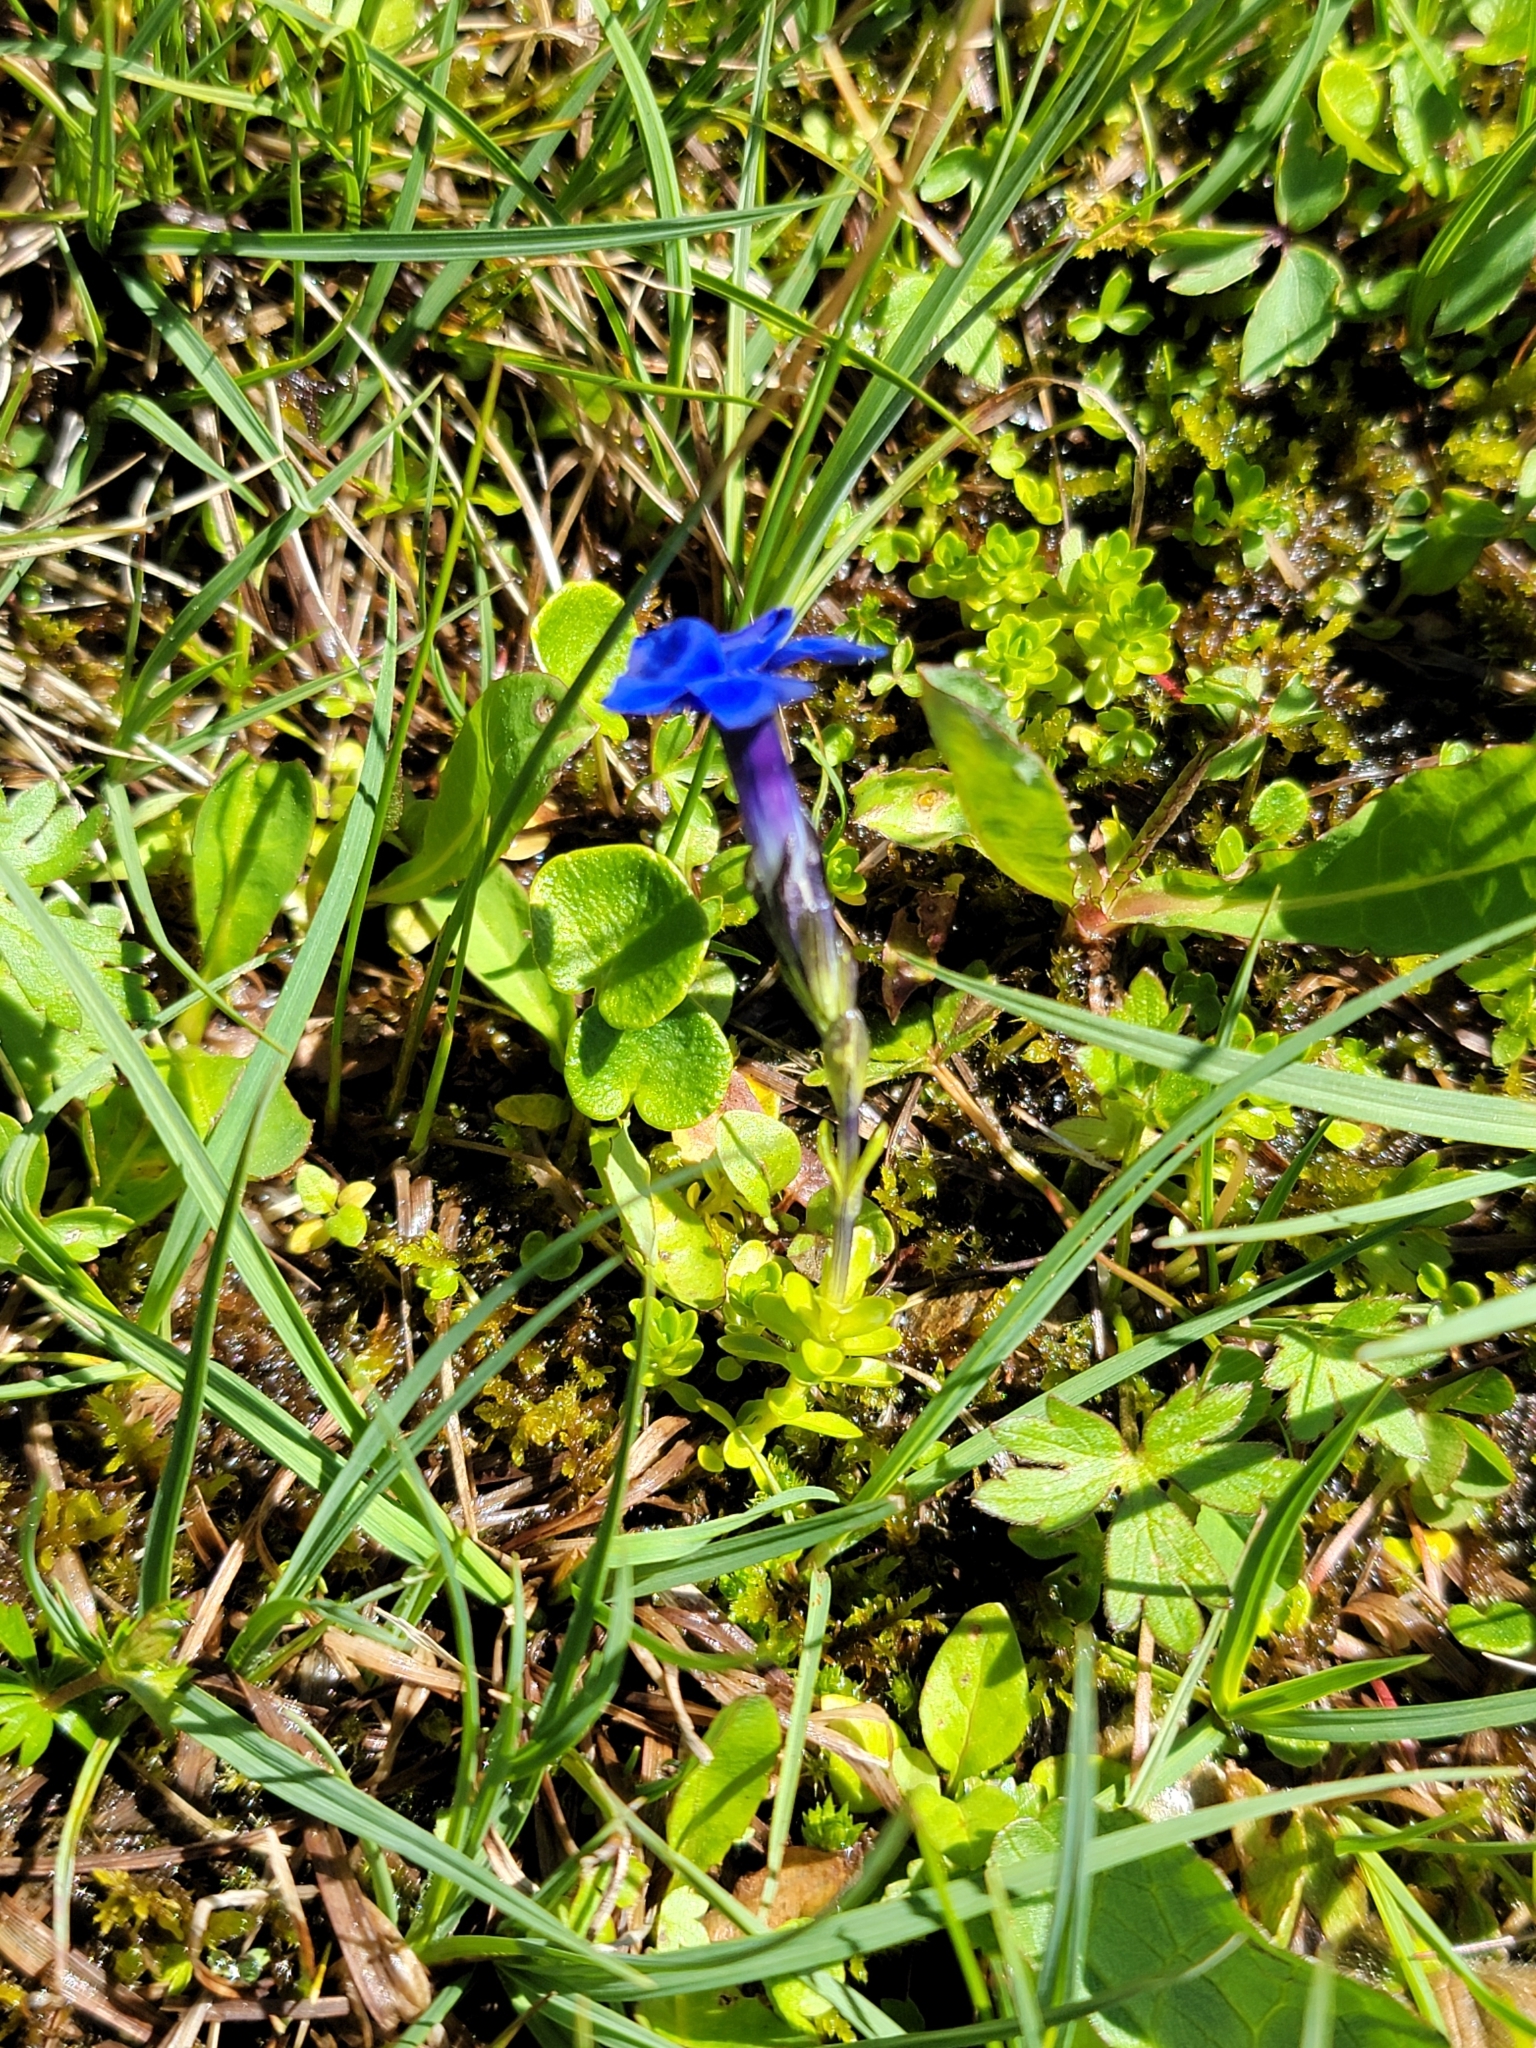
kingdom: Plantae
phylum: Tracheophyta
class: Magnoliopsida
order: Gentianales
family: Gentianaceae
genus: Gentiana
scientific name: Gentiana bavarica
